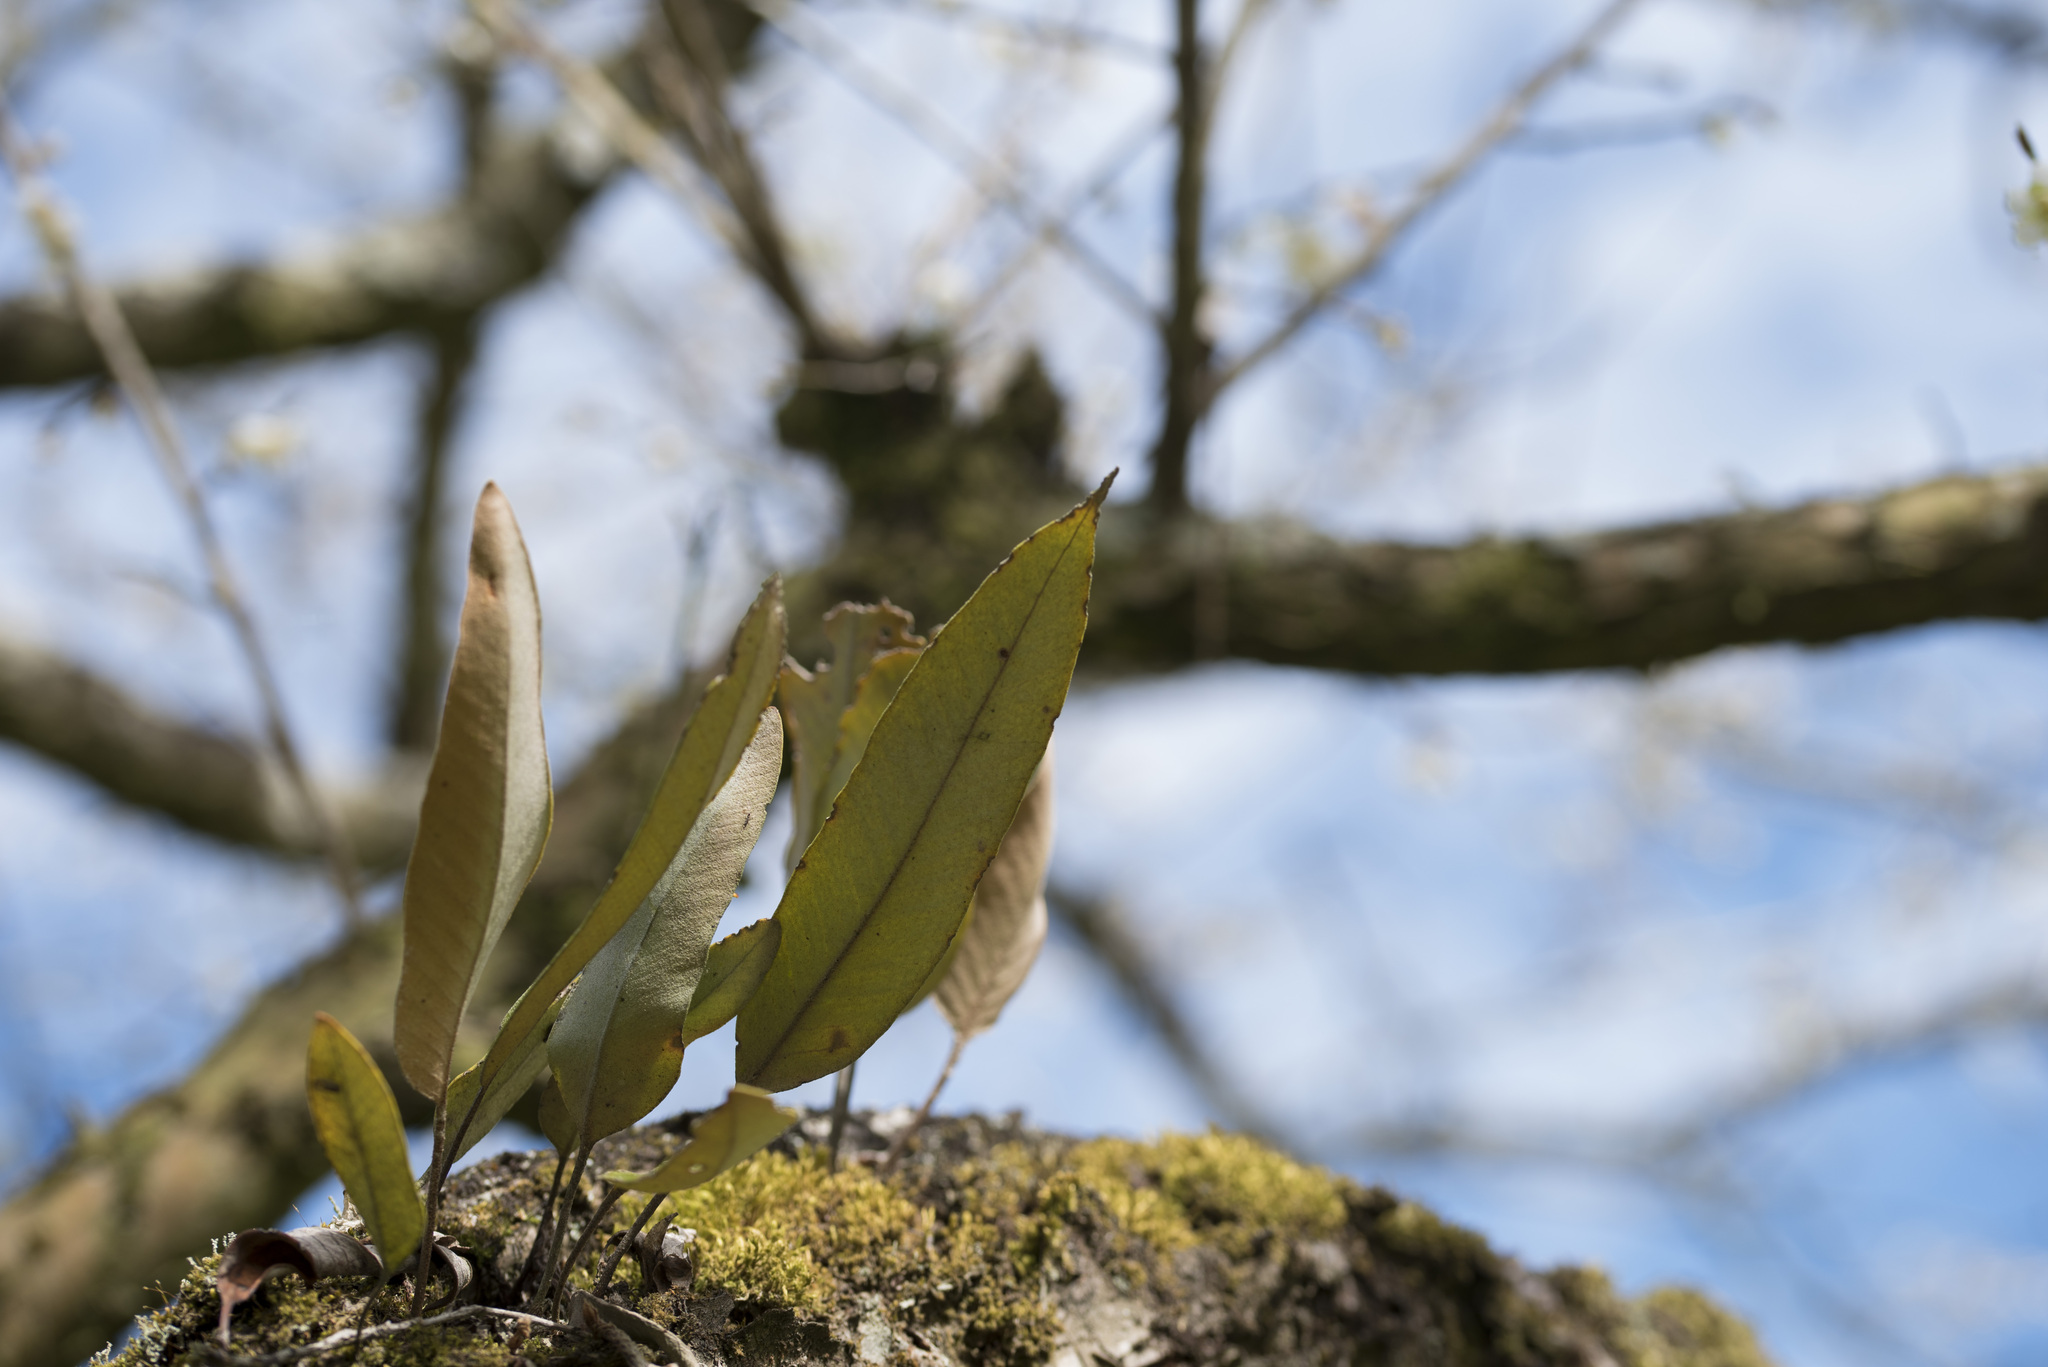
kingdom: Plantae
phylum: Tracheophyta
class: Polypodiopsida
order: Polypodiales
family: Polypodiaceae
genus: Pyrrosia
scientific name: Pyrrosia lingua
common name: Felt fern
